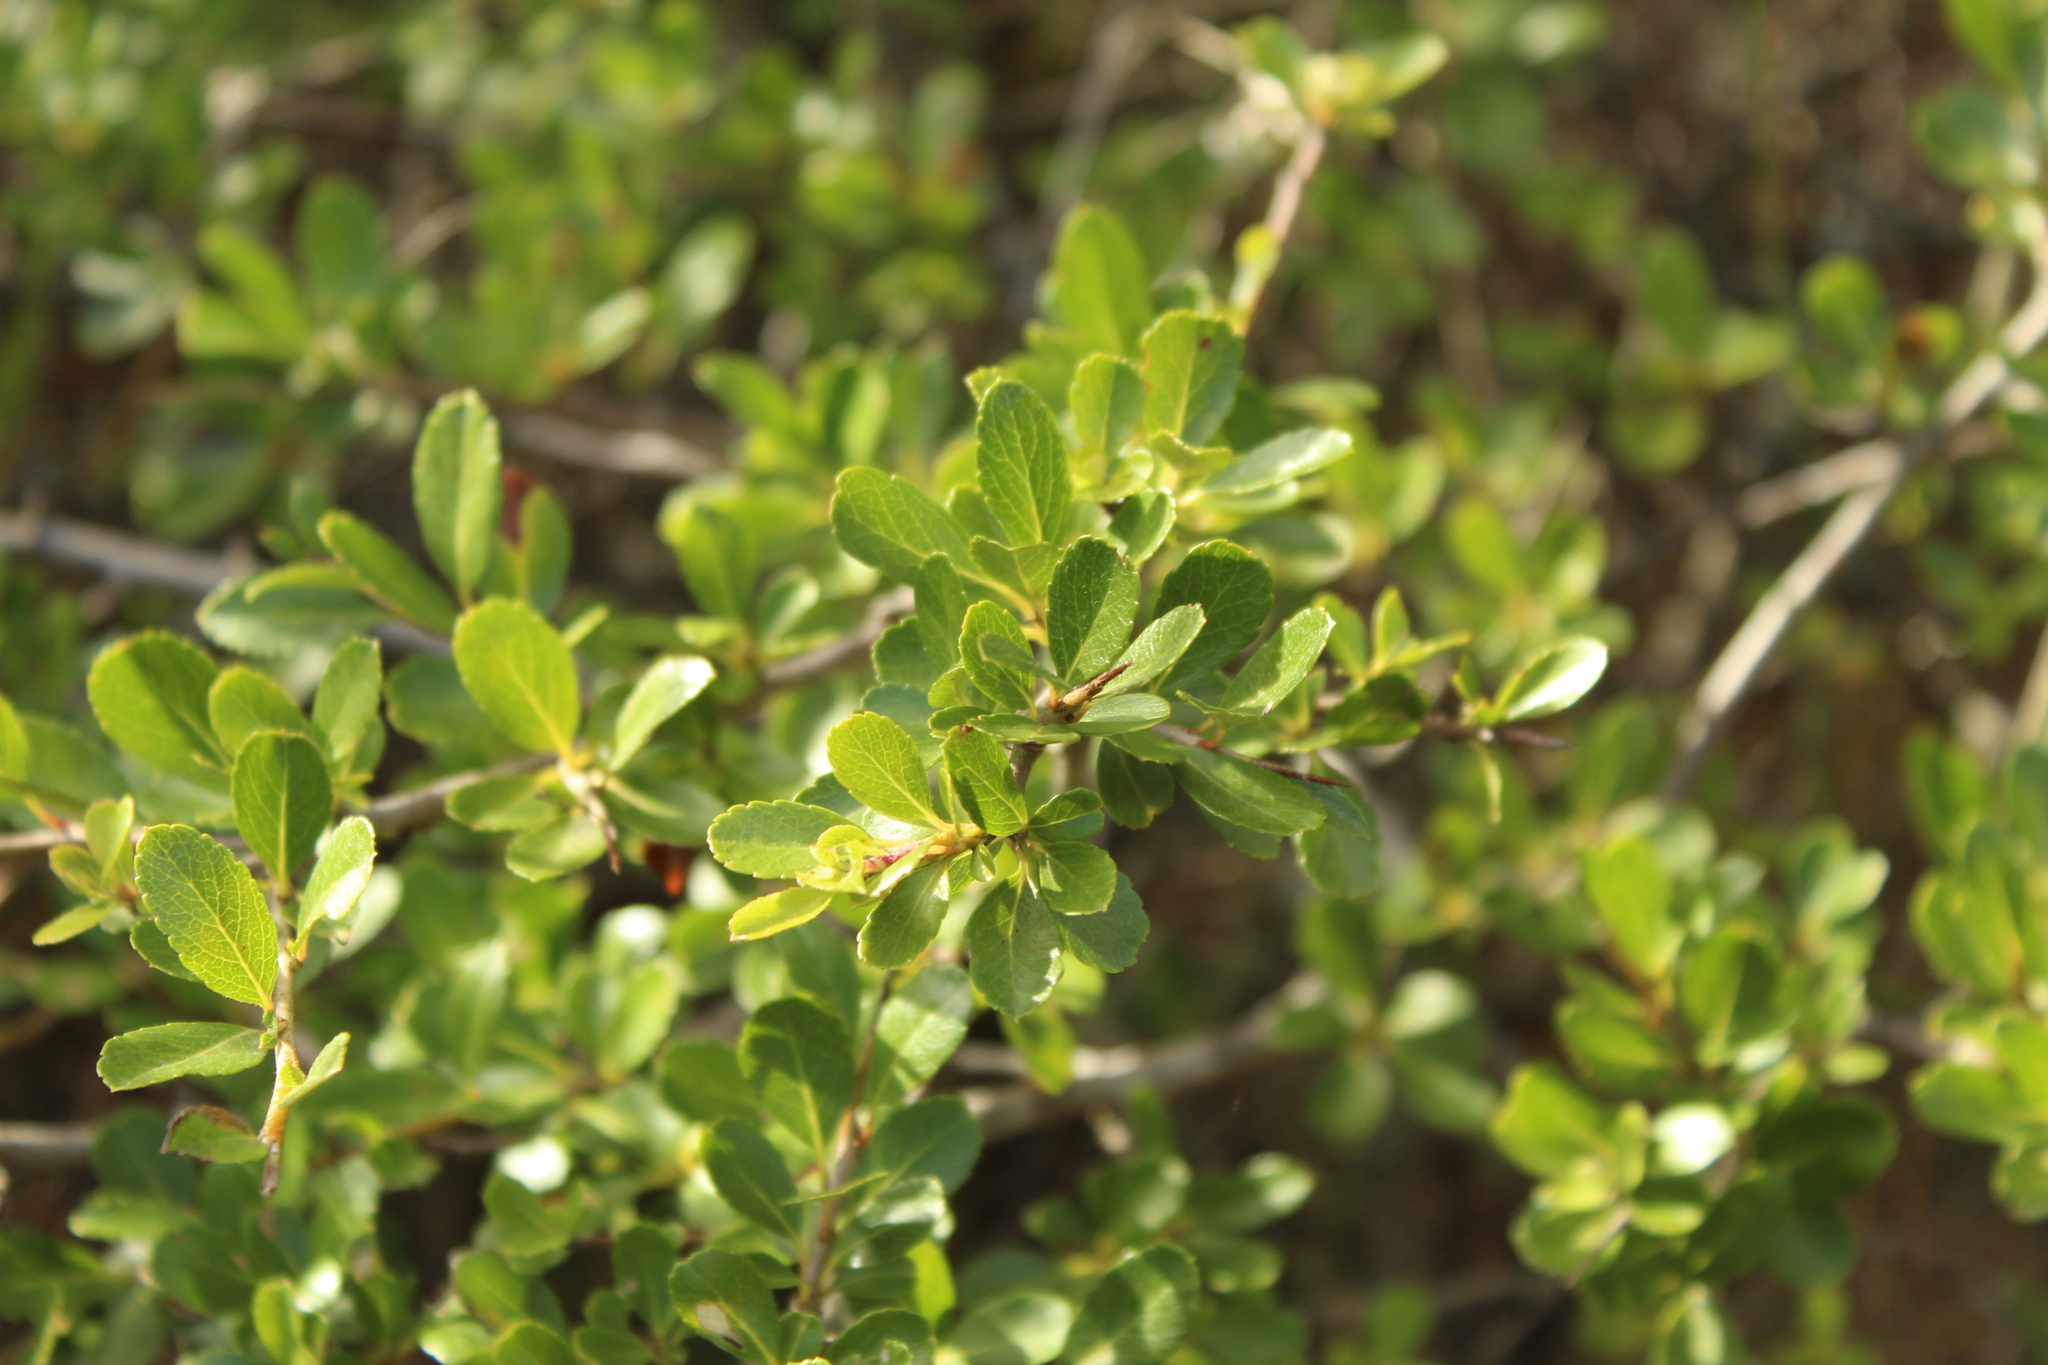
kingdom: Plantae
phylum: Tracheophyta
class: Magnoliopsida
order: Rosales
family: Rosaceae
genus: Hesperomeles
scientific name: Hesperomeles obtusifolia
